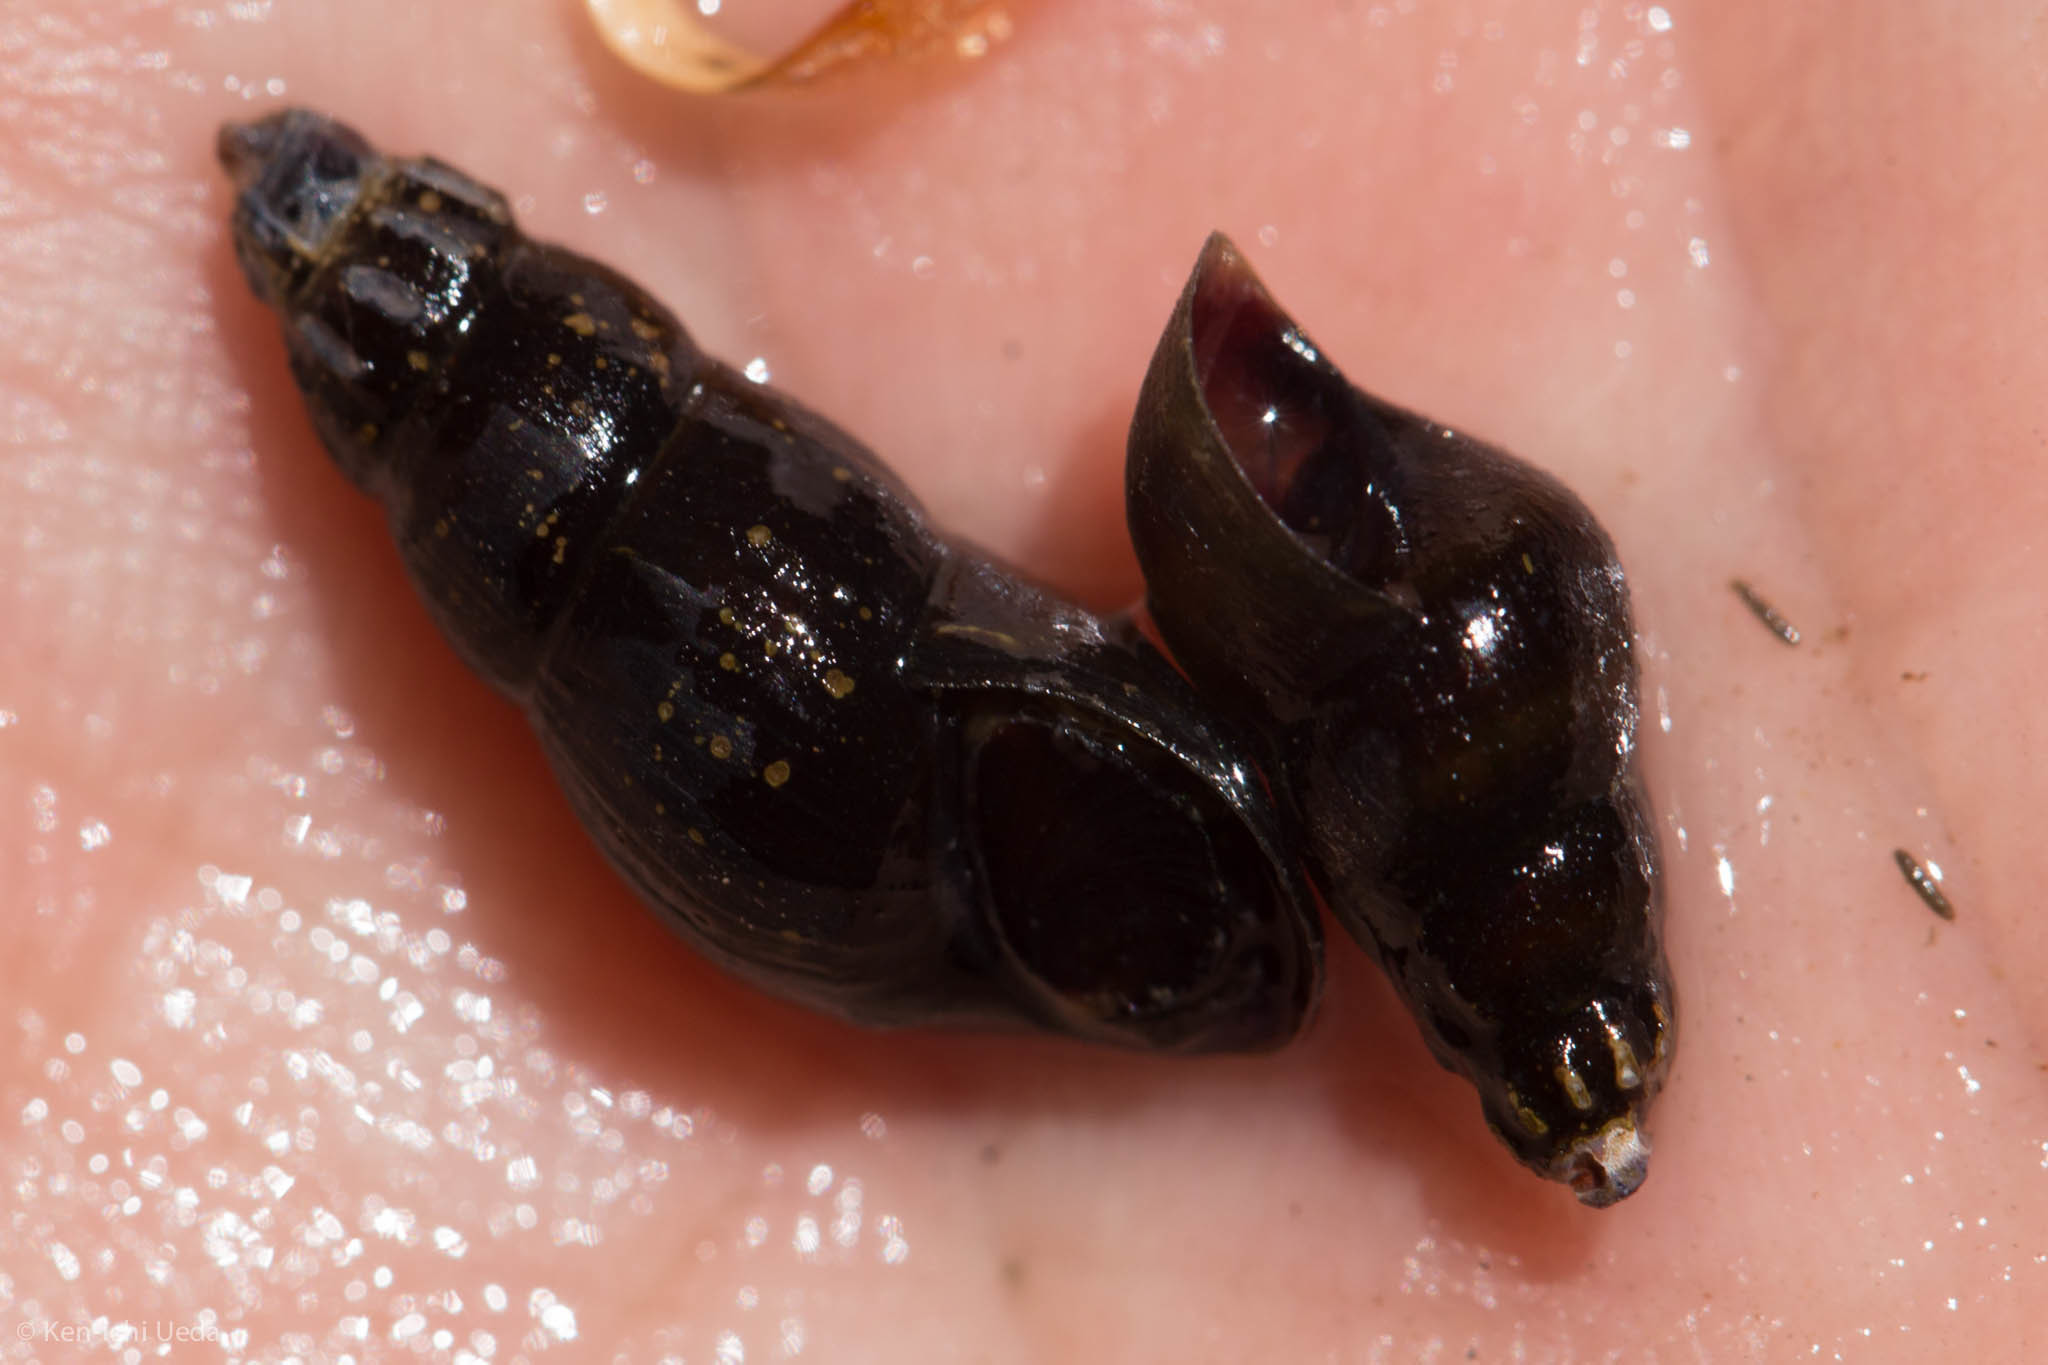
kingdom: Animalia
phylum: Mollusca
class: Gastropoda
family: Semisulcospiridae
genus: Juga
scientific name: Juga nigrina
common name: Black juga
